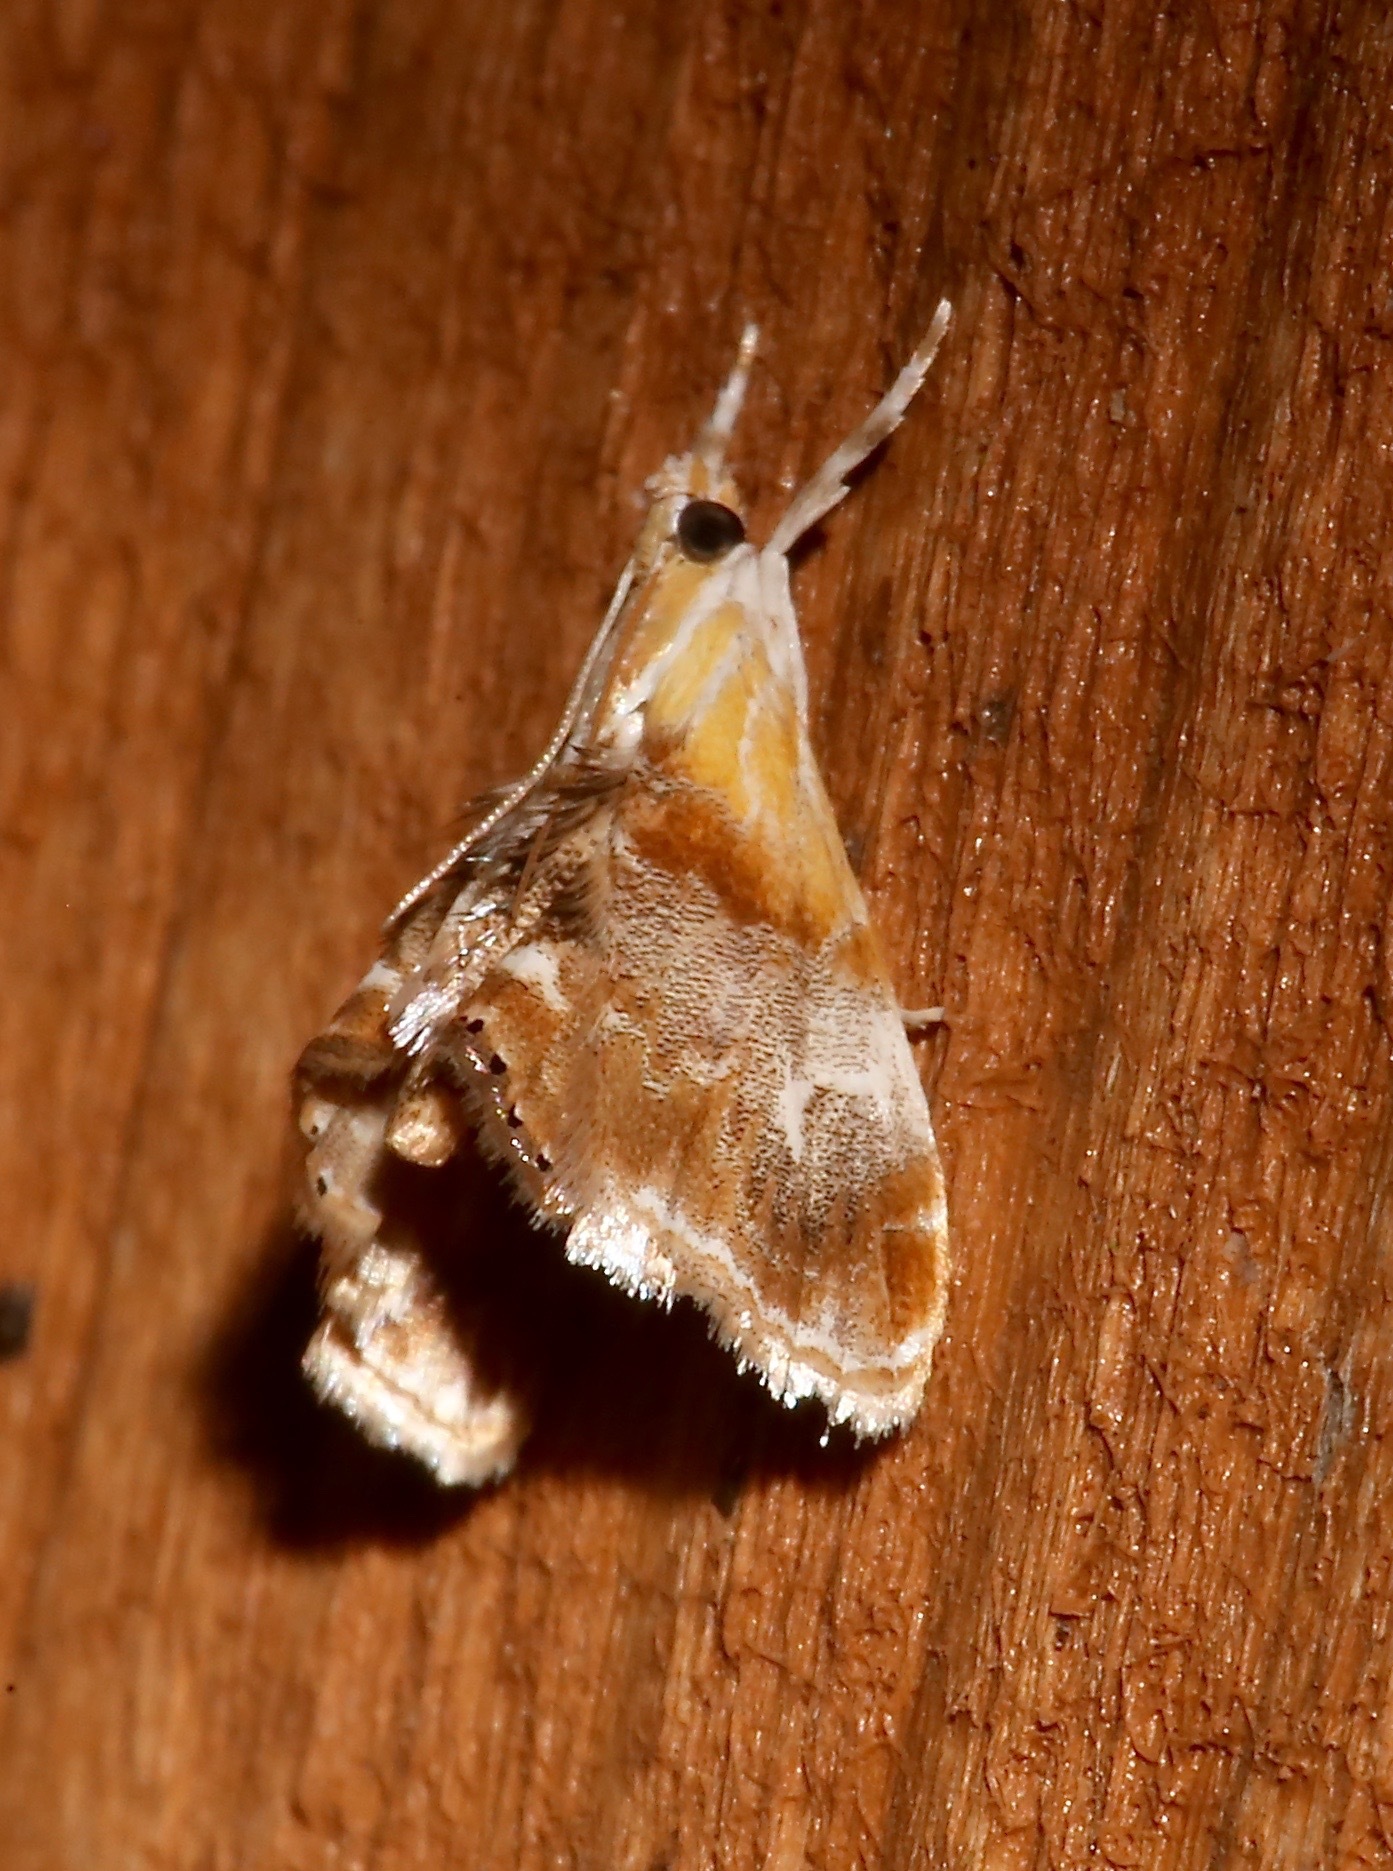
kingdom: Animalia
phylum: Arthropoda
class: Insecta
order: Lepidoptera
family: Crambidae
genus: Dicymolomia
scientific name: Dicymolomia julianalis
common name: Julia's dicymolomia moth
